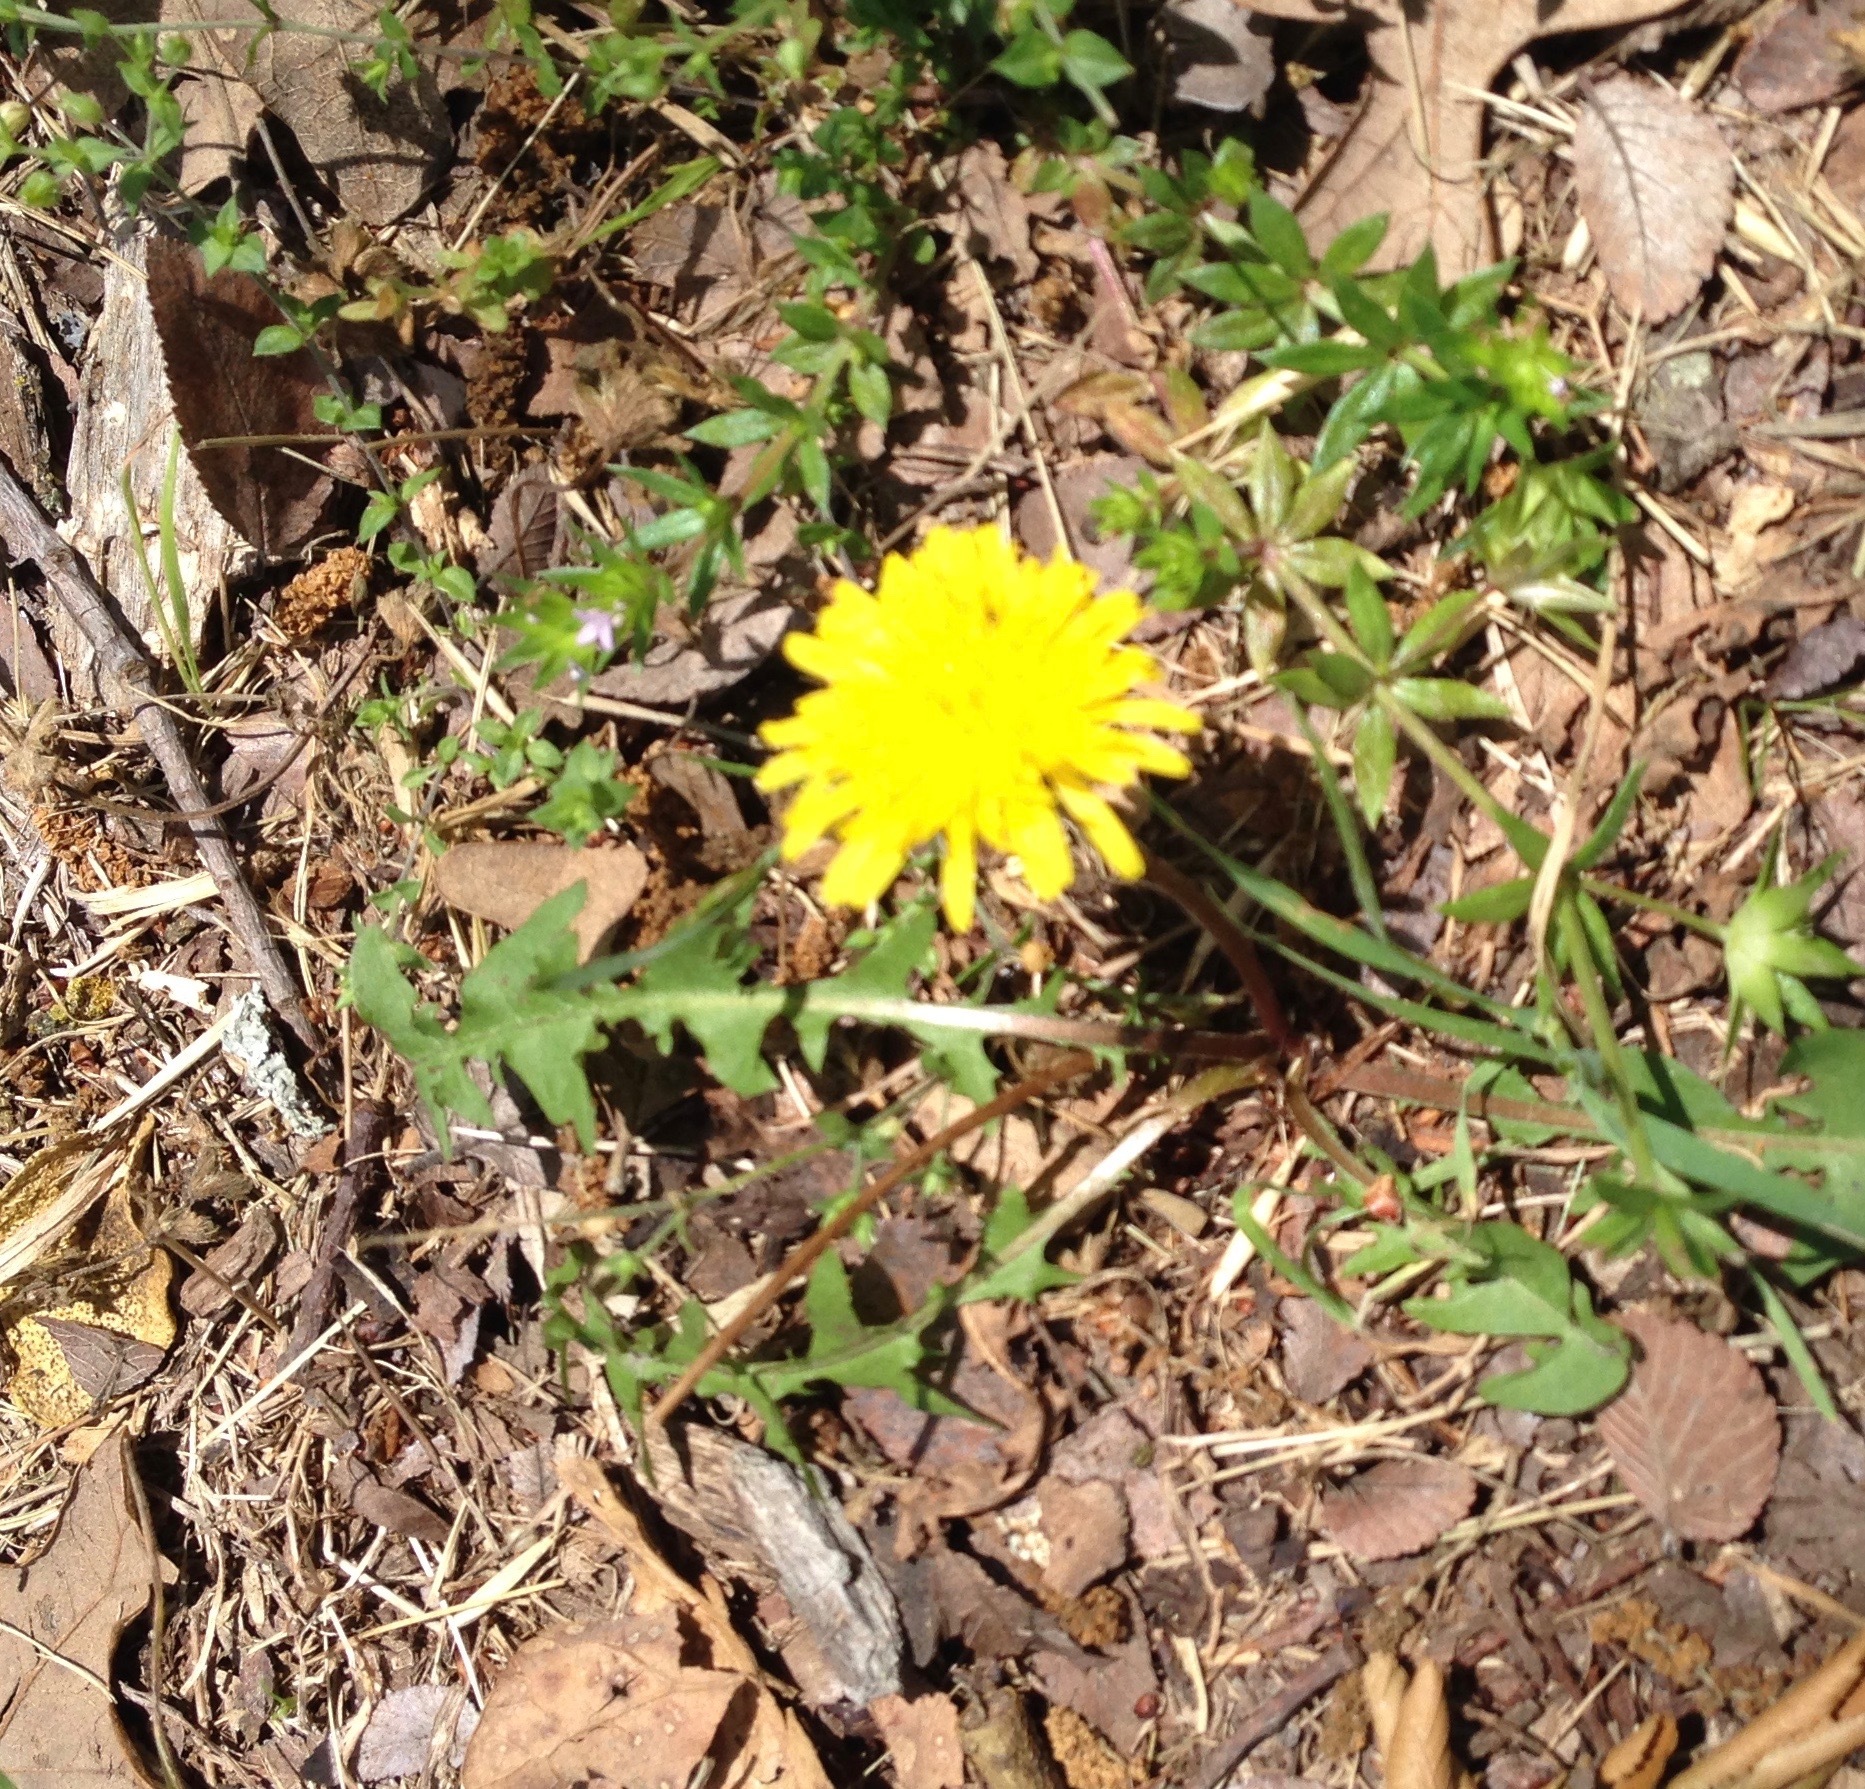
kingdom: Plantae
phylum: Tracheophyta
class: Magnoliopsida
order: Asterales
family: Asteraceae
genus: Taraxacum
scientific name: Taraxacum officinale
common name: Common dandelion
